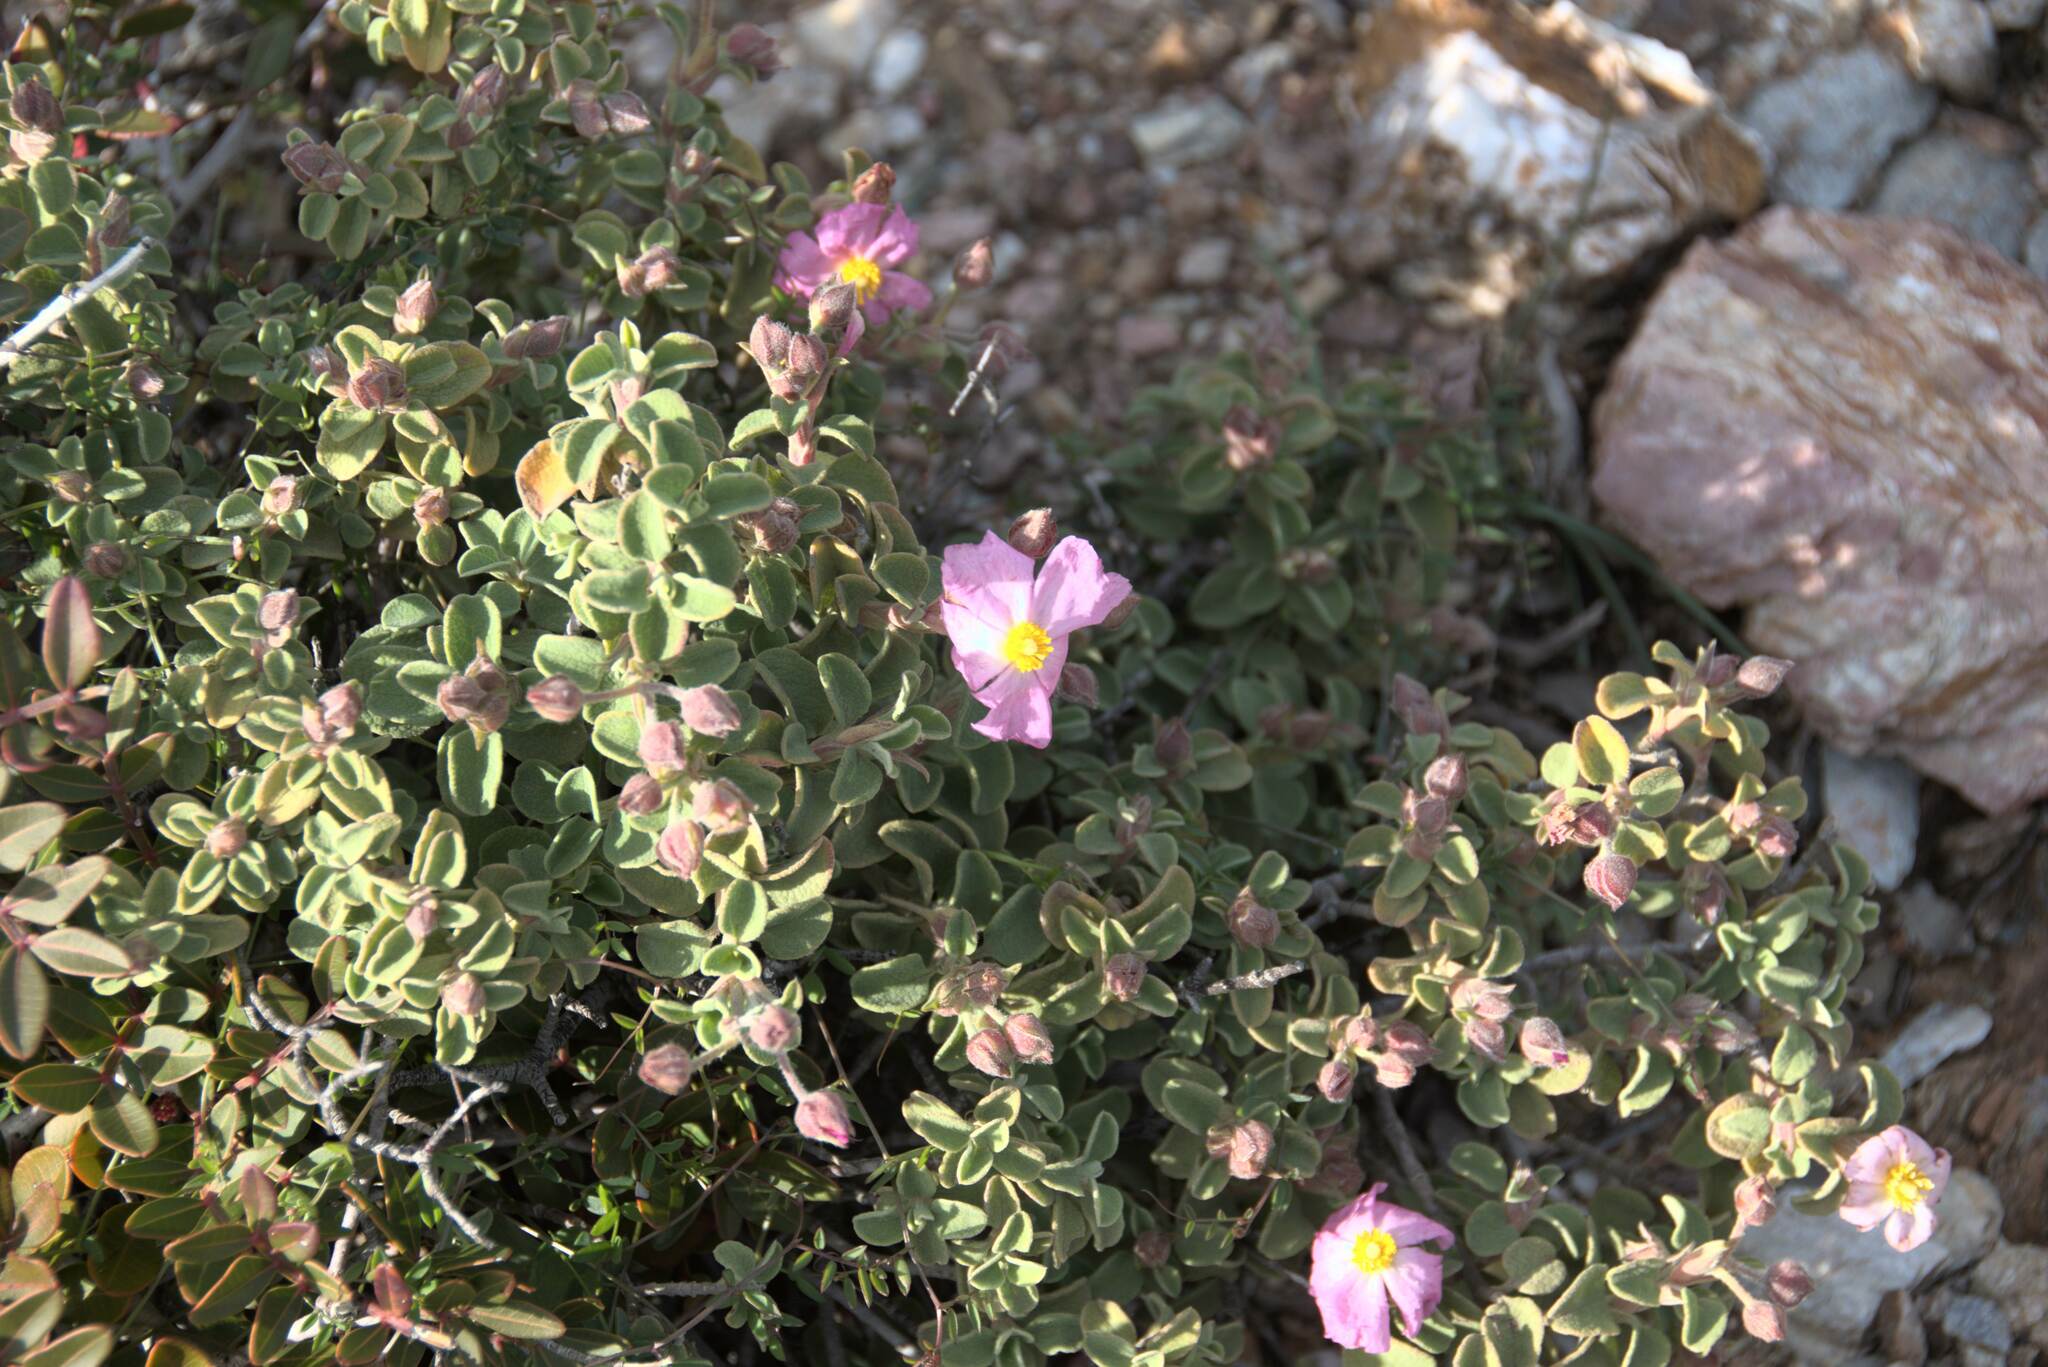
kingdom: Plantae
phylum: Tracheophyta
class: Magnoliopsida
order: Malvales
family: Cistaceae
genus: Cistus
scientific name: Cistus parviflorus
